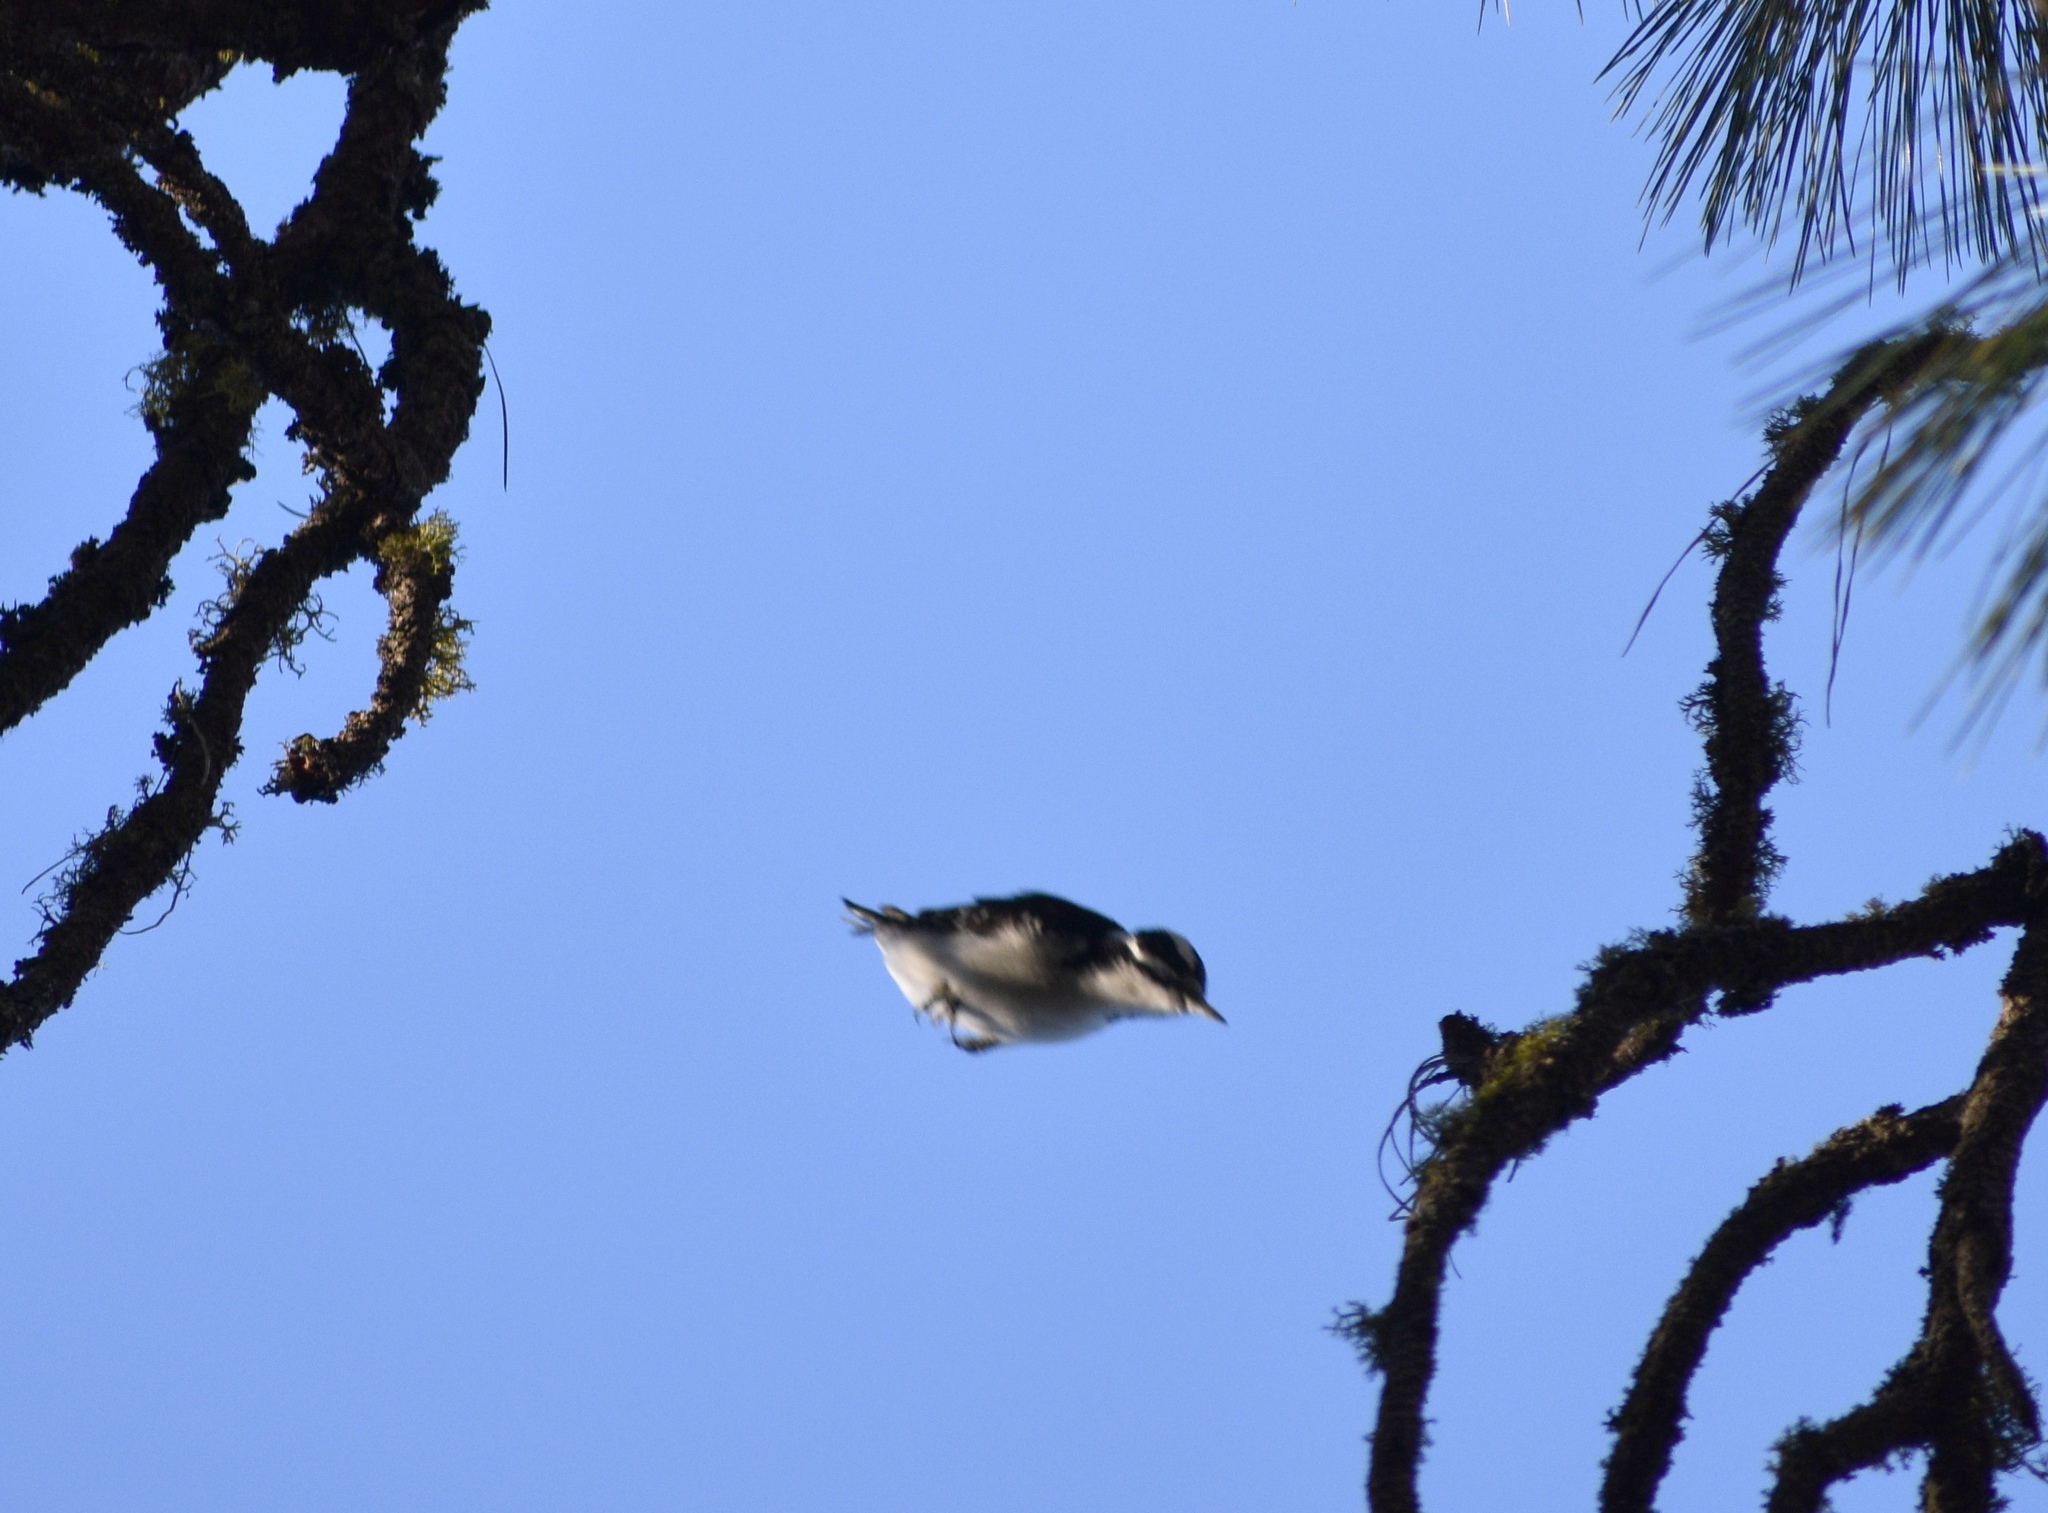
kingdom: Animalia
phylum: Chordata
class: Aves
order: Piciformes
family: Picidae
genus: Leuconotopicus
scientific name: Leuconotopicus villosus
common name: Hairy woodpecker
